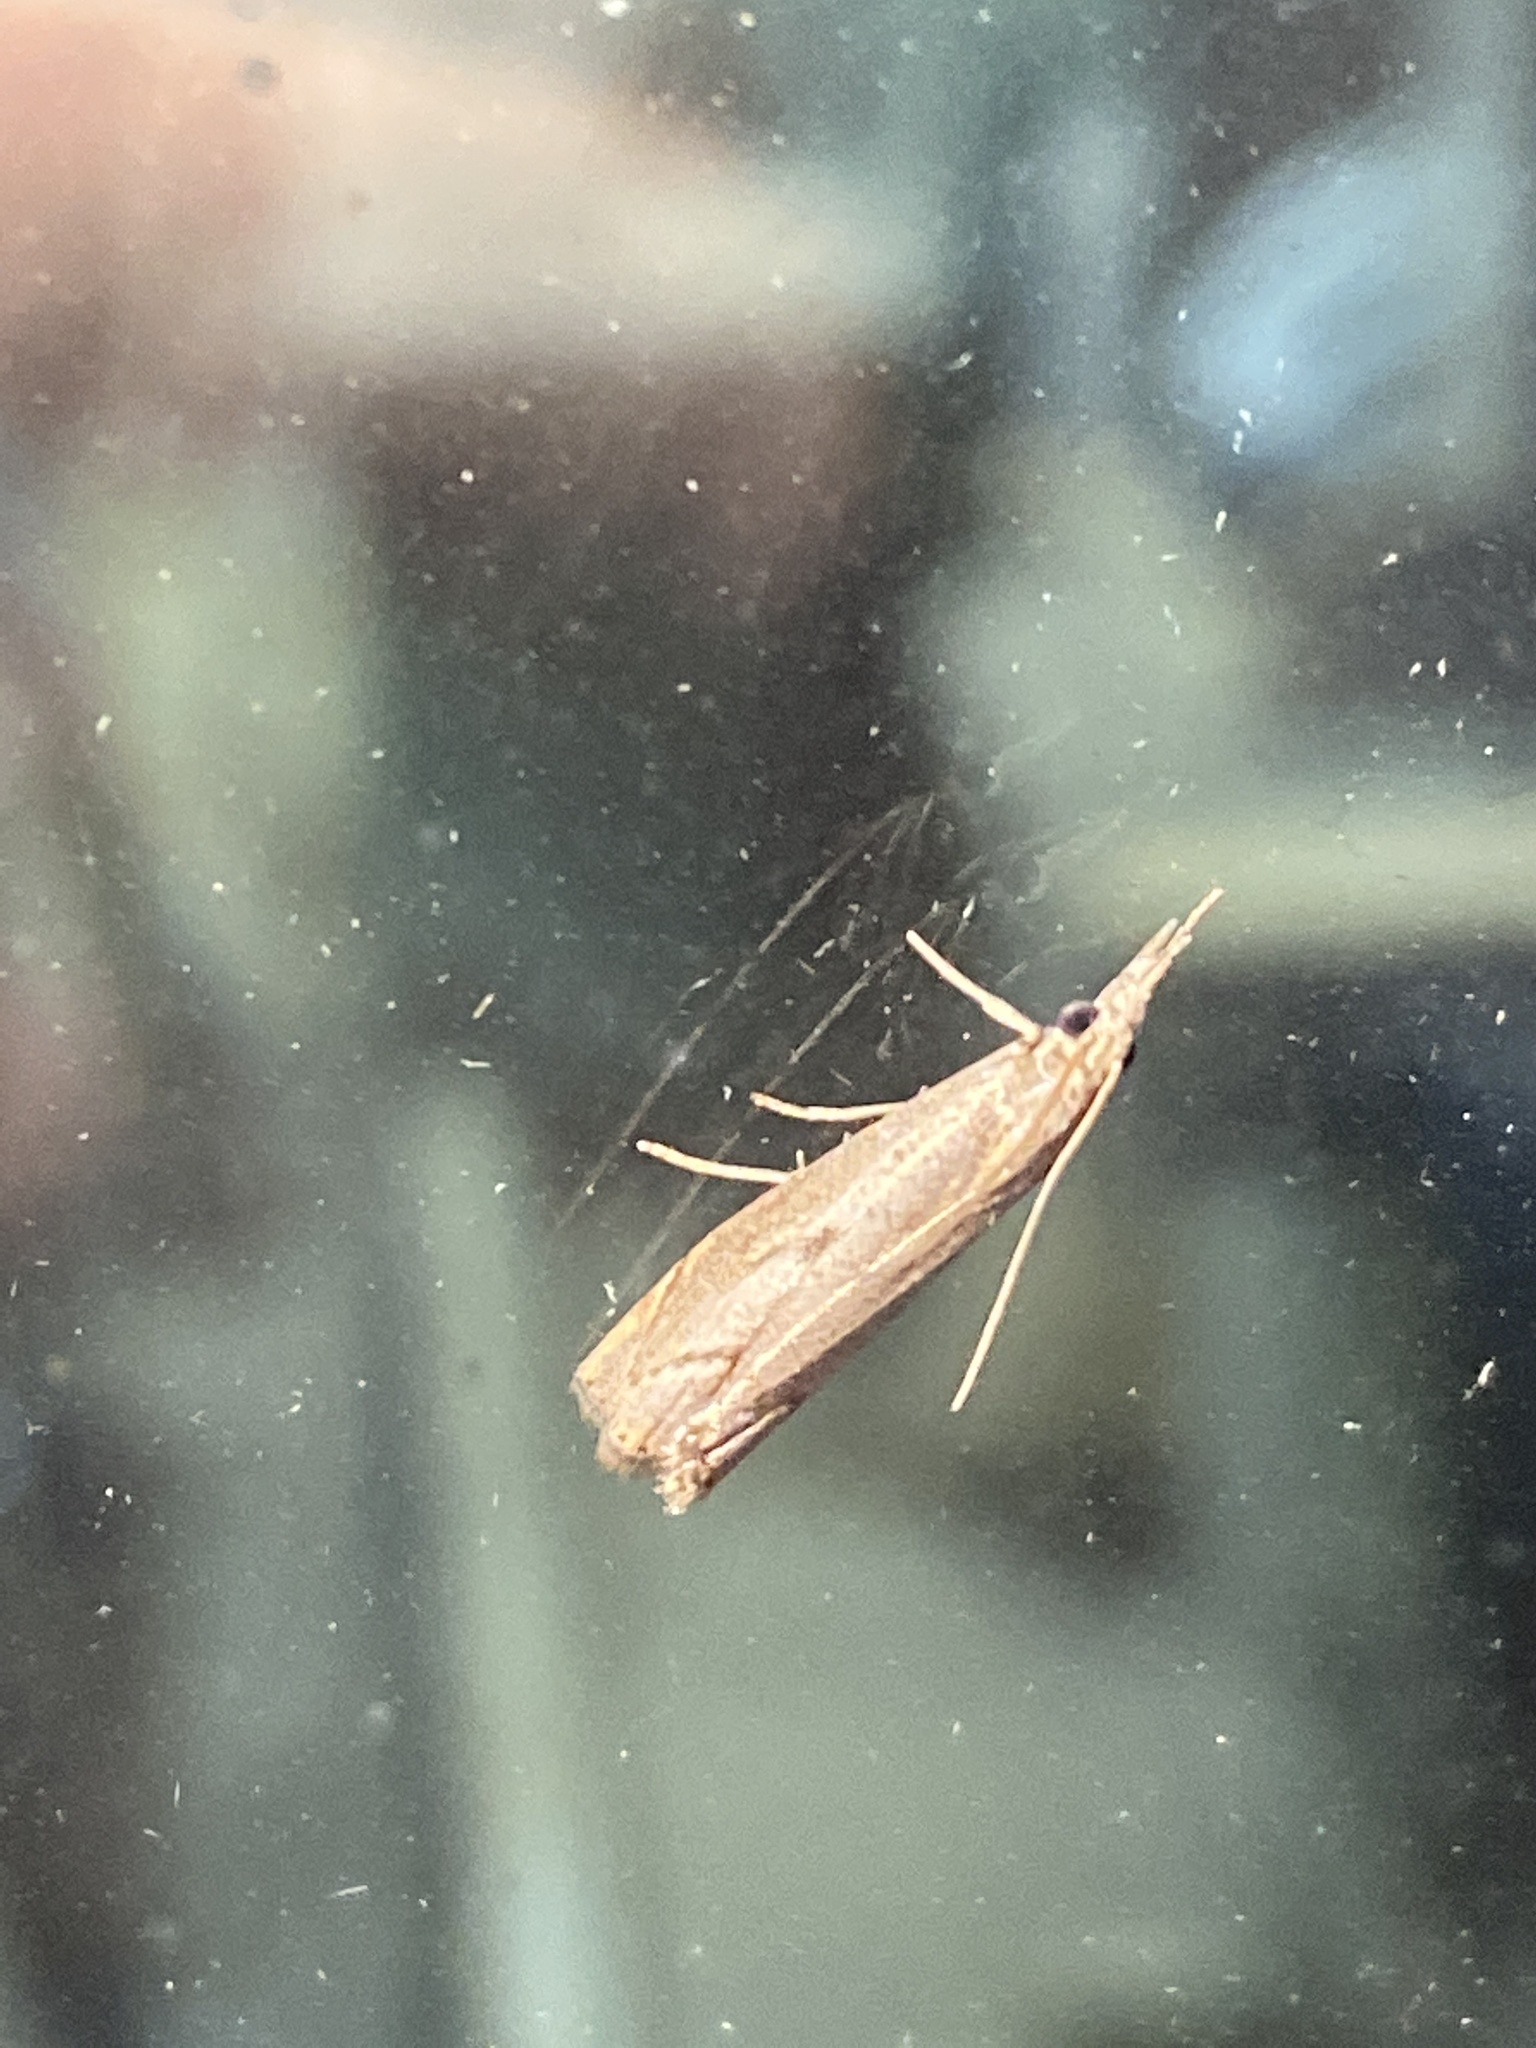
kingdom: Animalia
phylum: Arthropoda
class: Insecta
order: Lepidoptera
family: Crambidae
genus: Agriphila
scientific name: Agriphila geniculea
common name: Elbow-stripe grass-veneer
